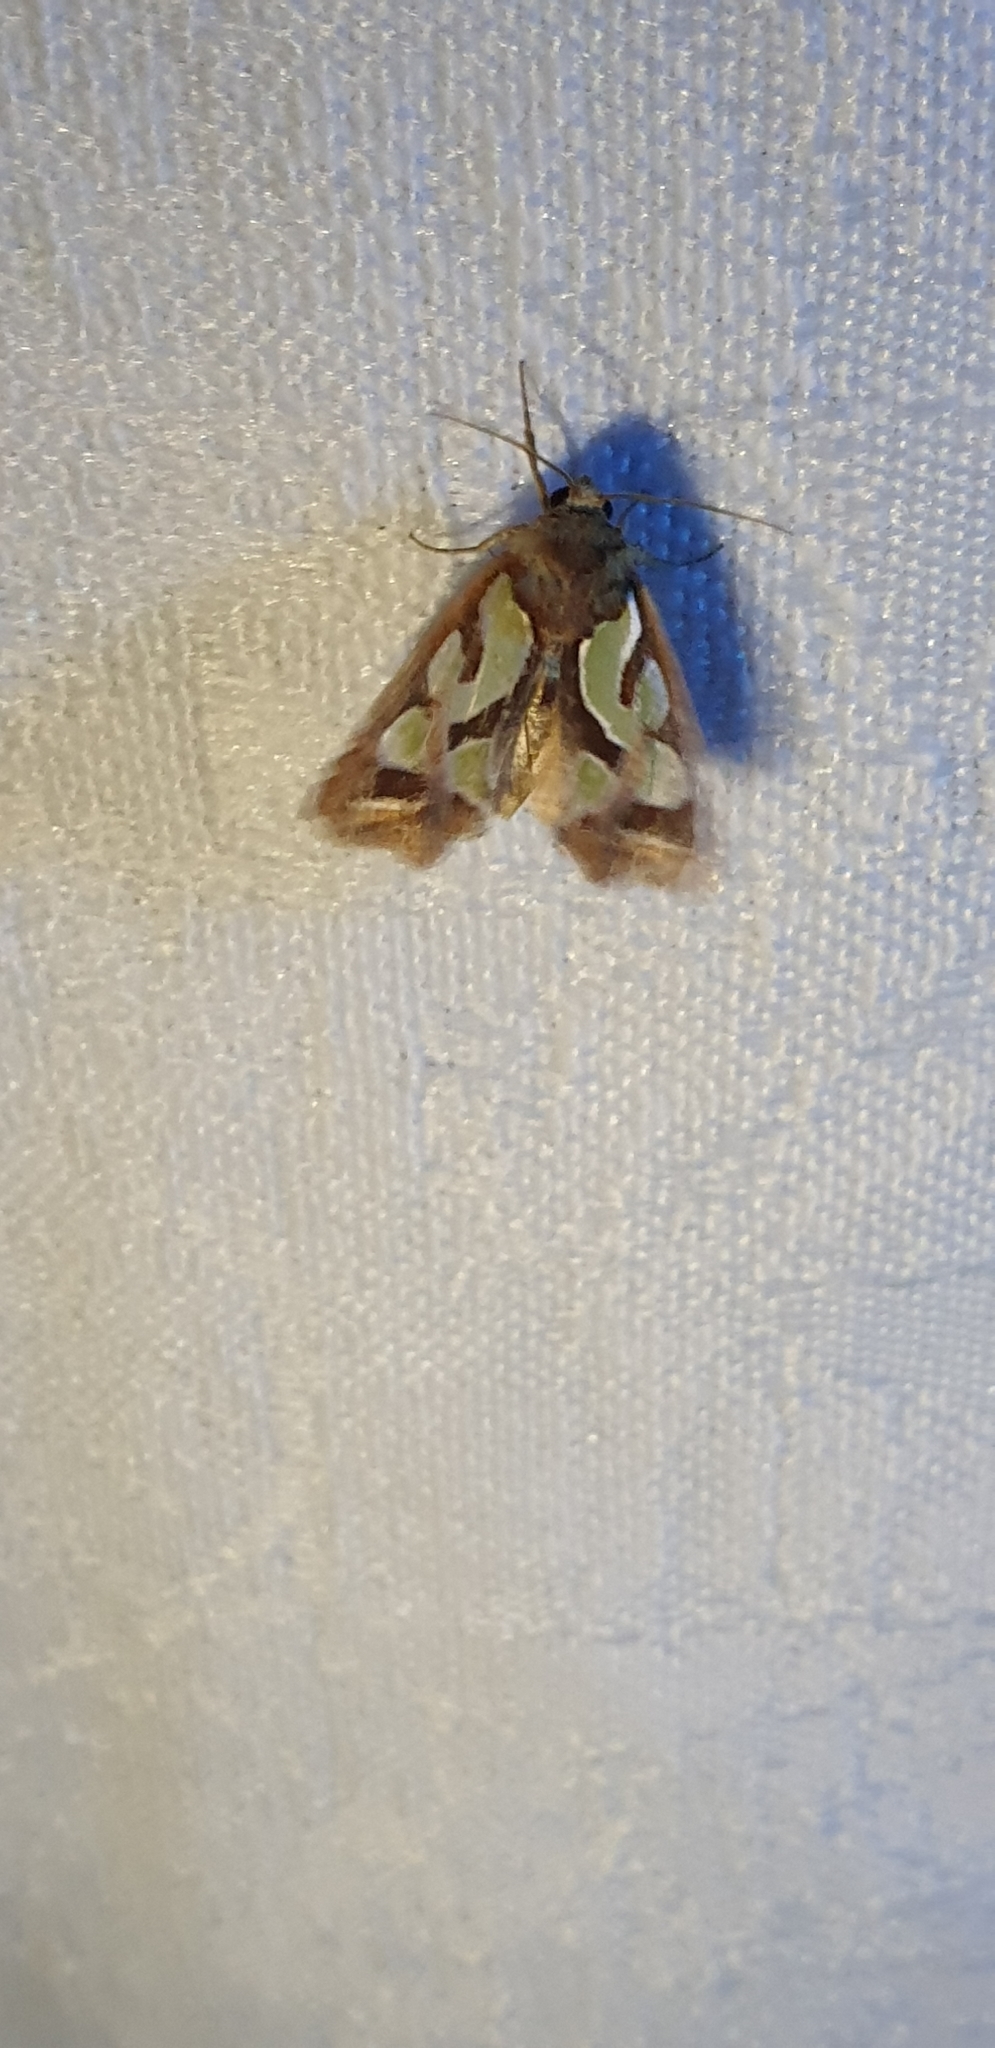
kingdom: Animalia
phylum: Arthropoda
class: Insecta
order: Lepidoptera
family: Noctuidae
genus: Cosmodes
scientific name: Cosmodes elegans
